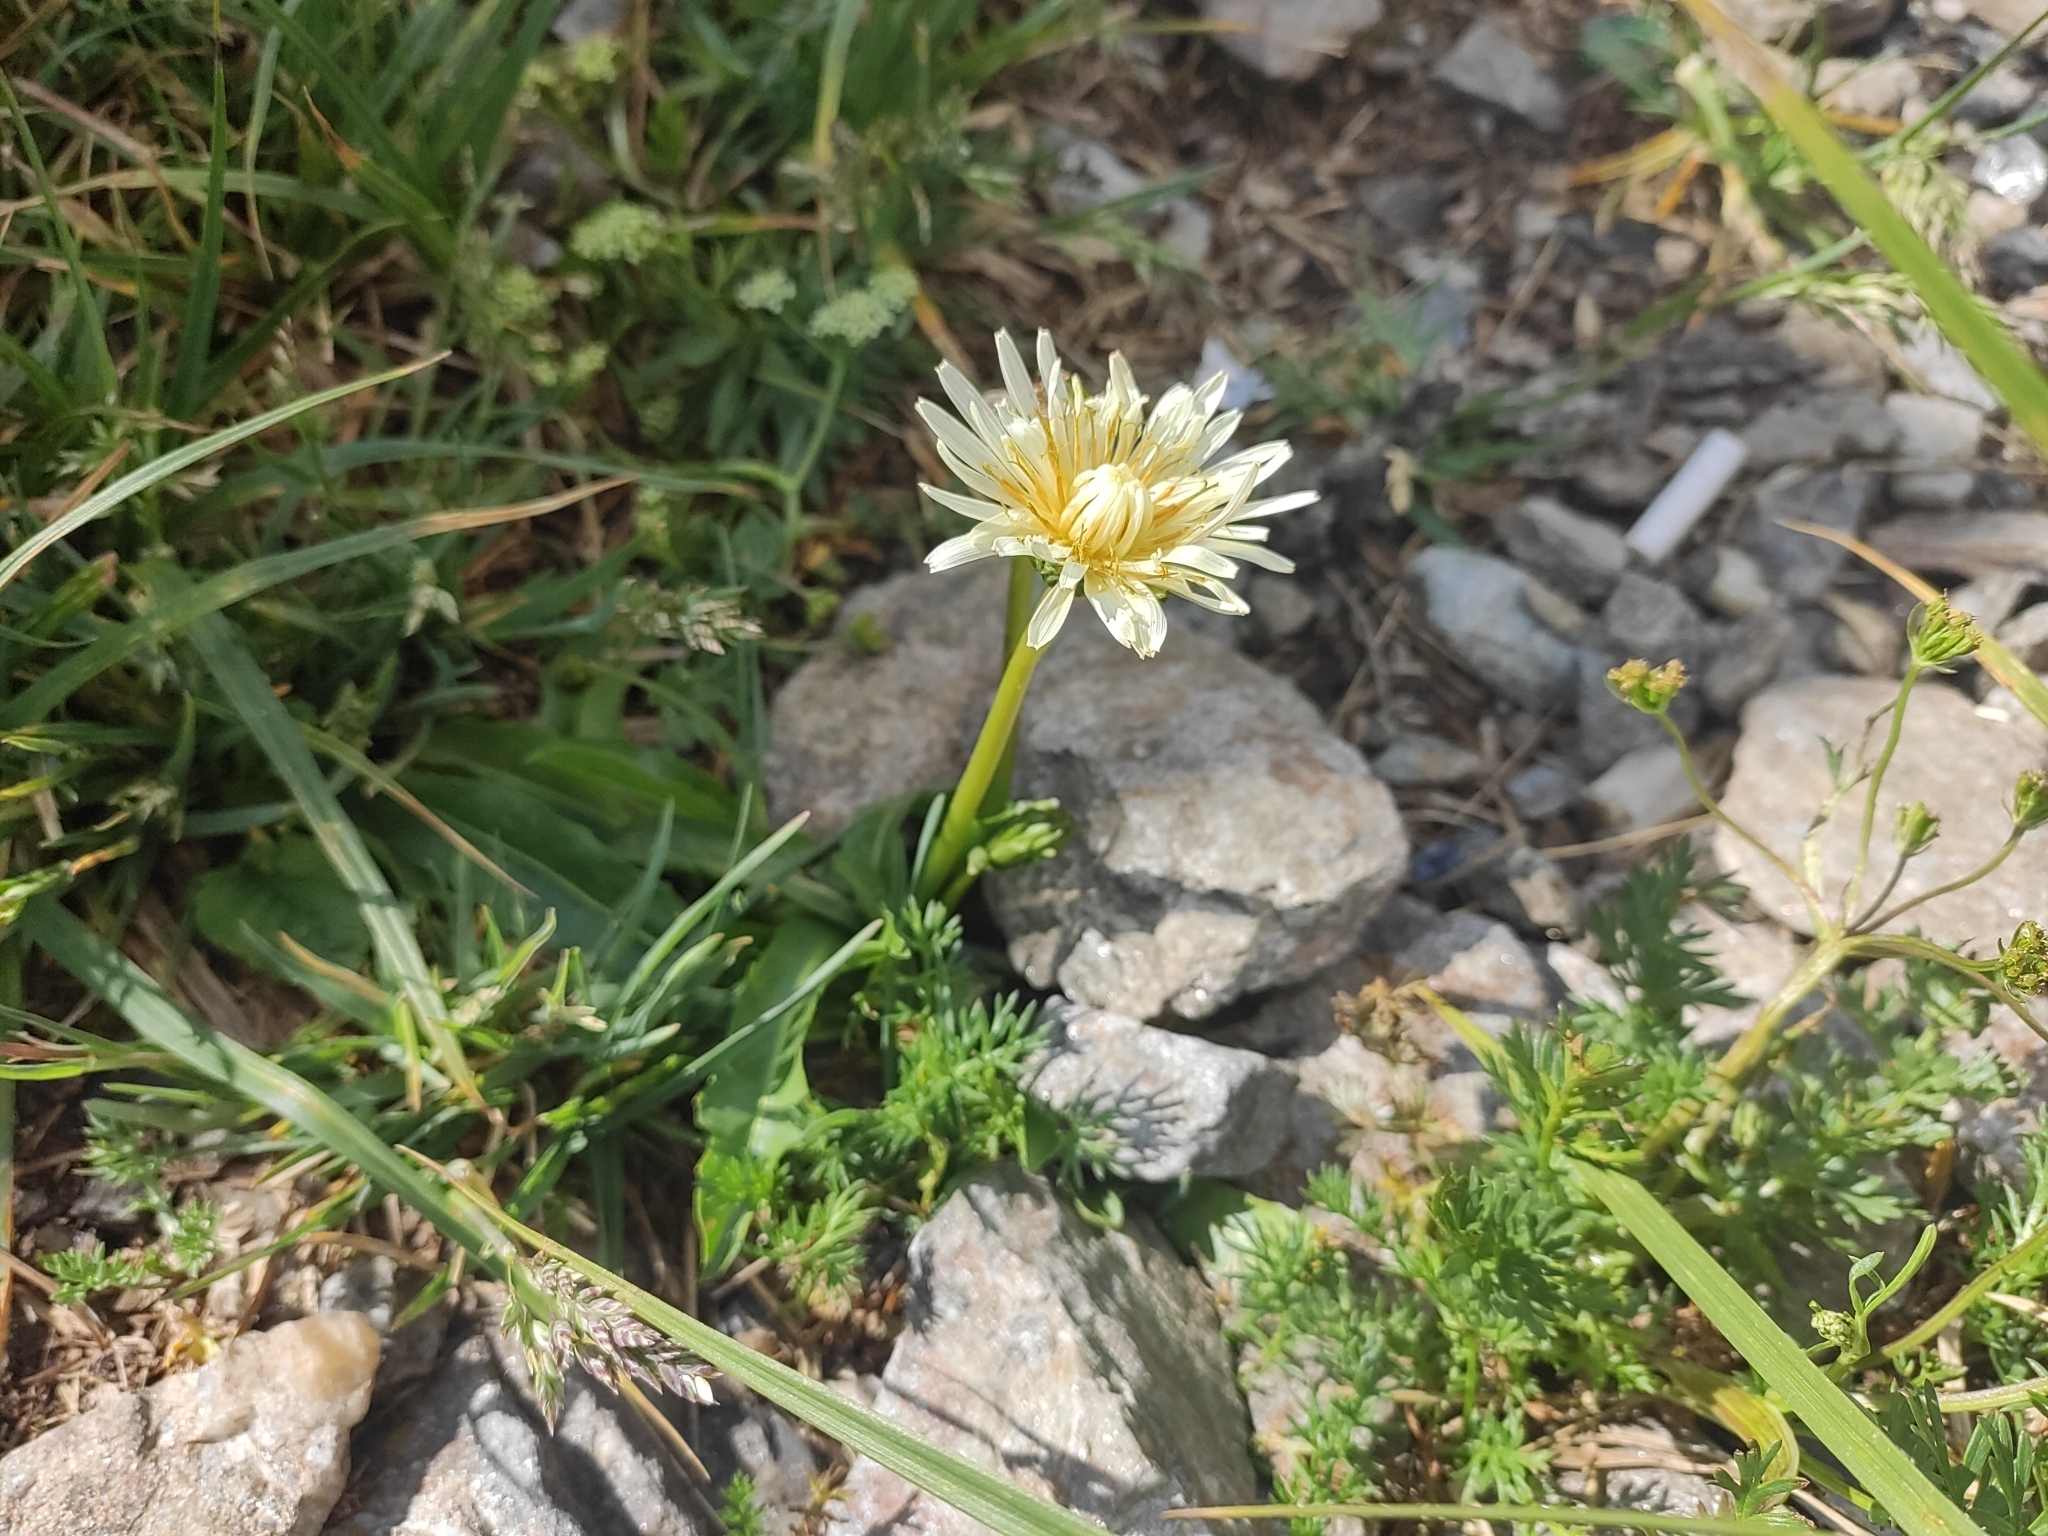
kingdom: Plantae
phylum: Tracheophyta
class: Magnoliopsida
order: Asterales
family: Asteraceae
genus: Taraxacum
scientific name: Taraxacum confusum
